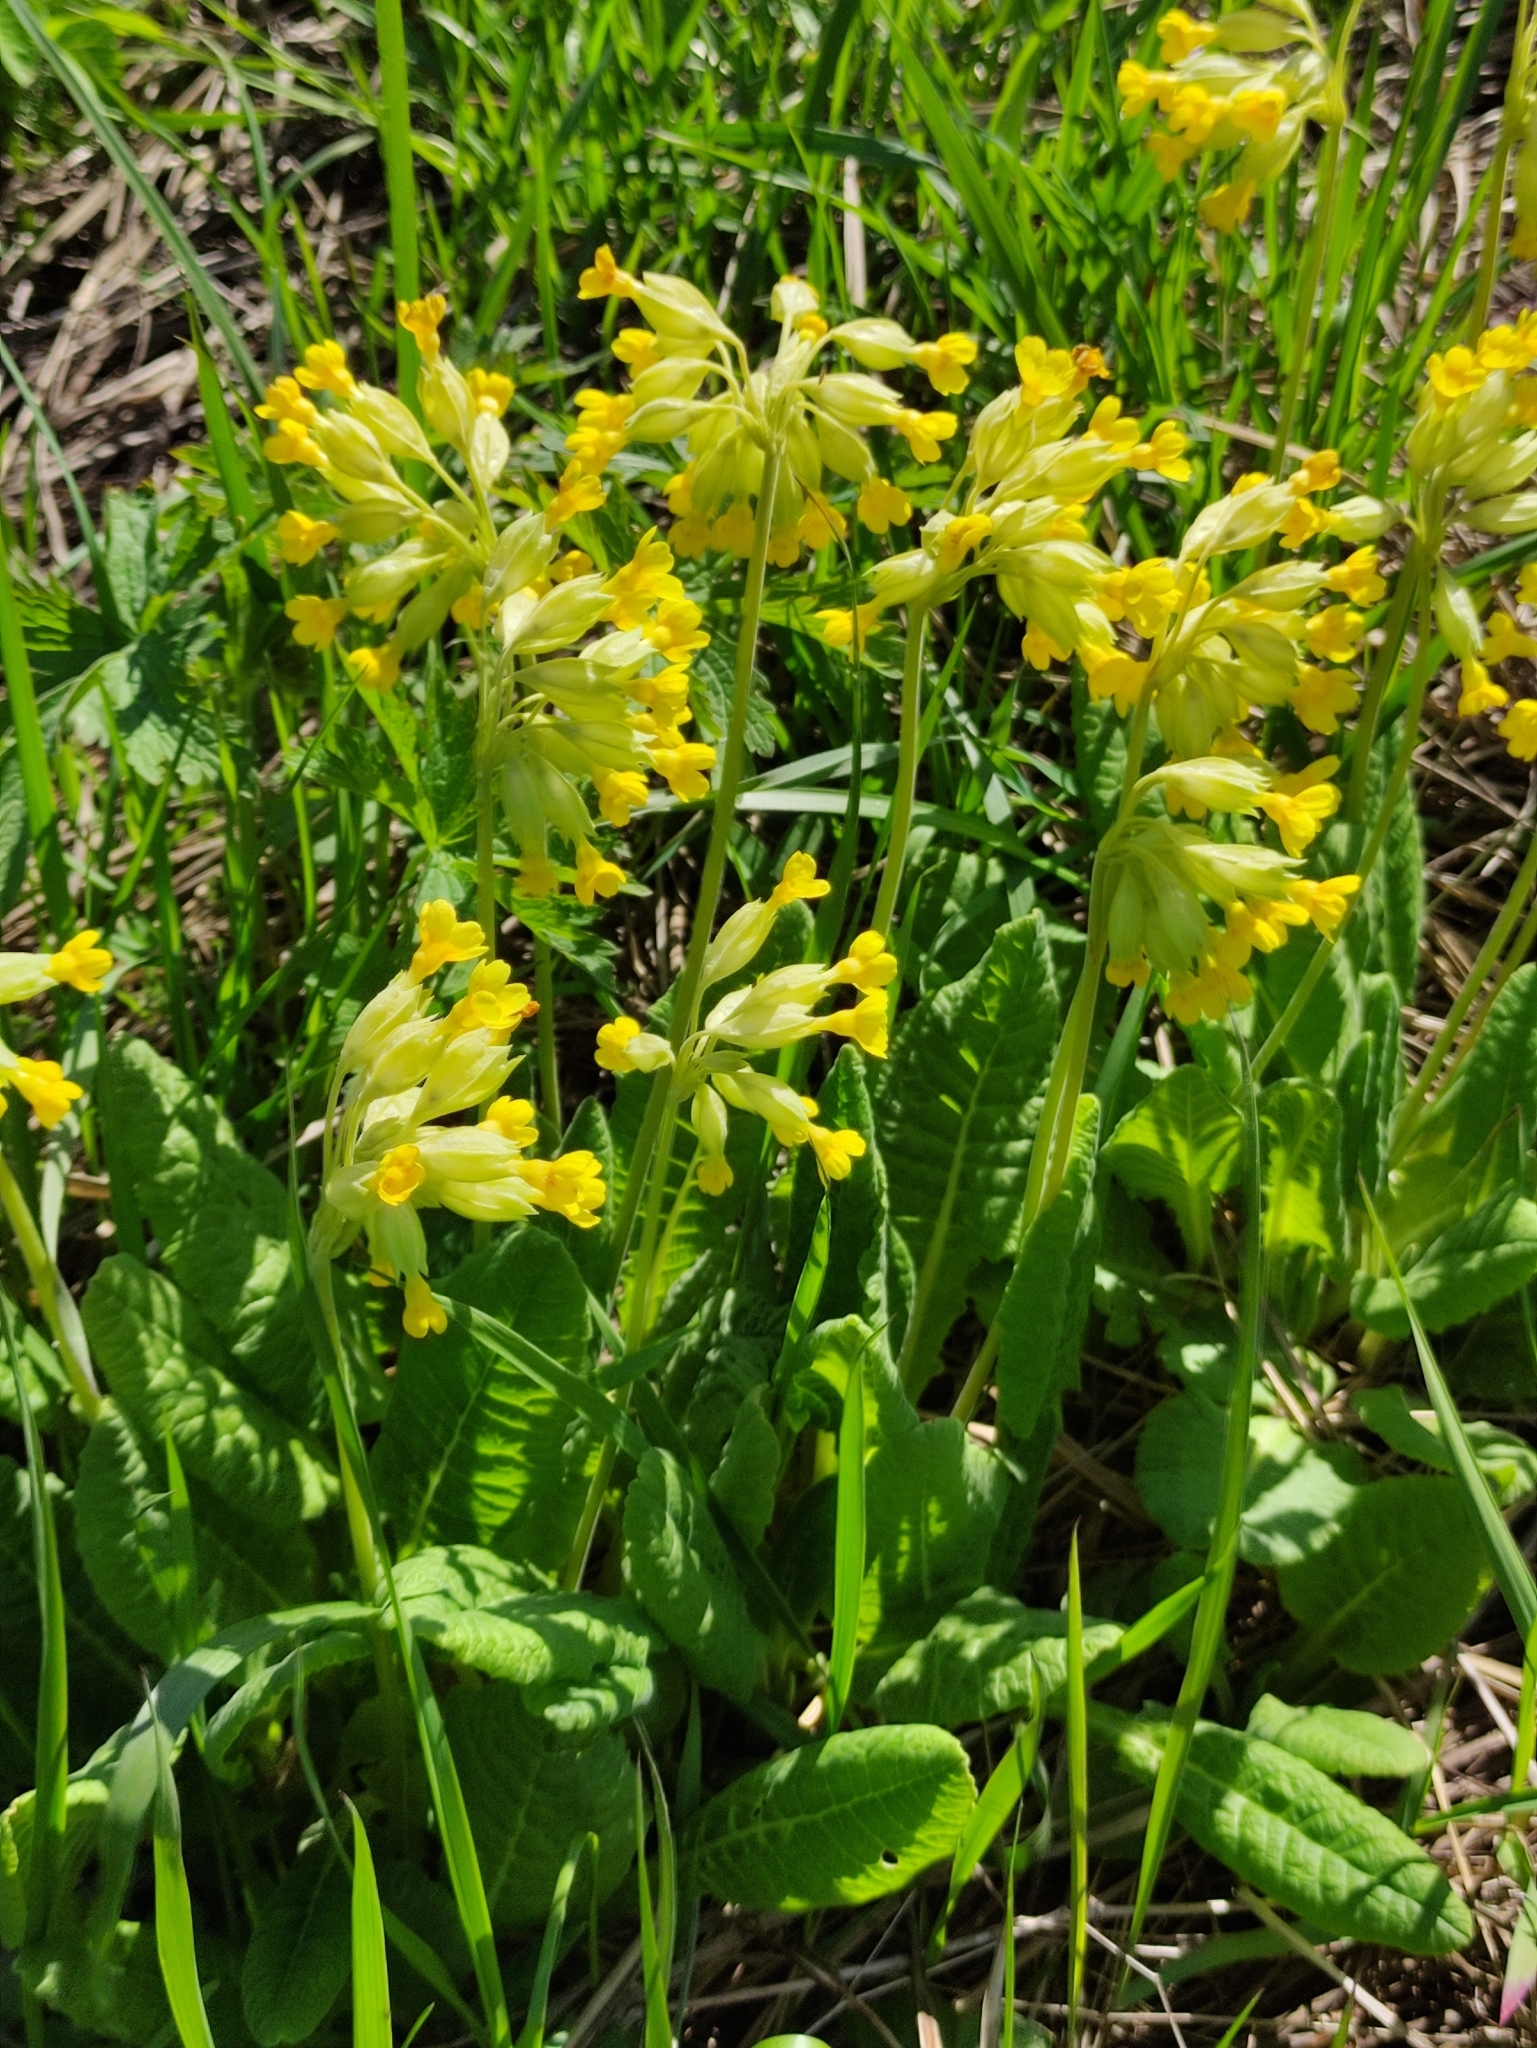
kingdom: Plantae
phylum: Tracheophyta
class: Magnoliopsida
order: Ericales
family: Primulaceae
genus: Primula
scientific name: Primula veris
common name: Cowslip
